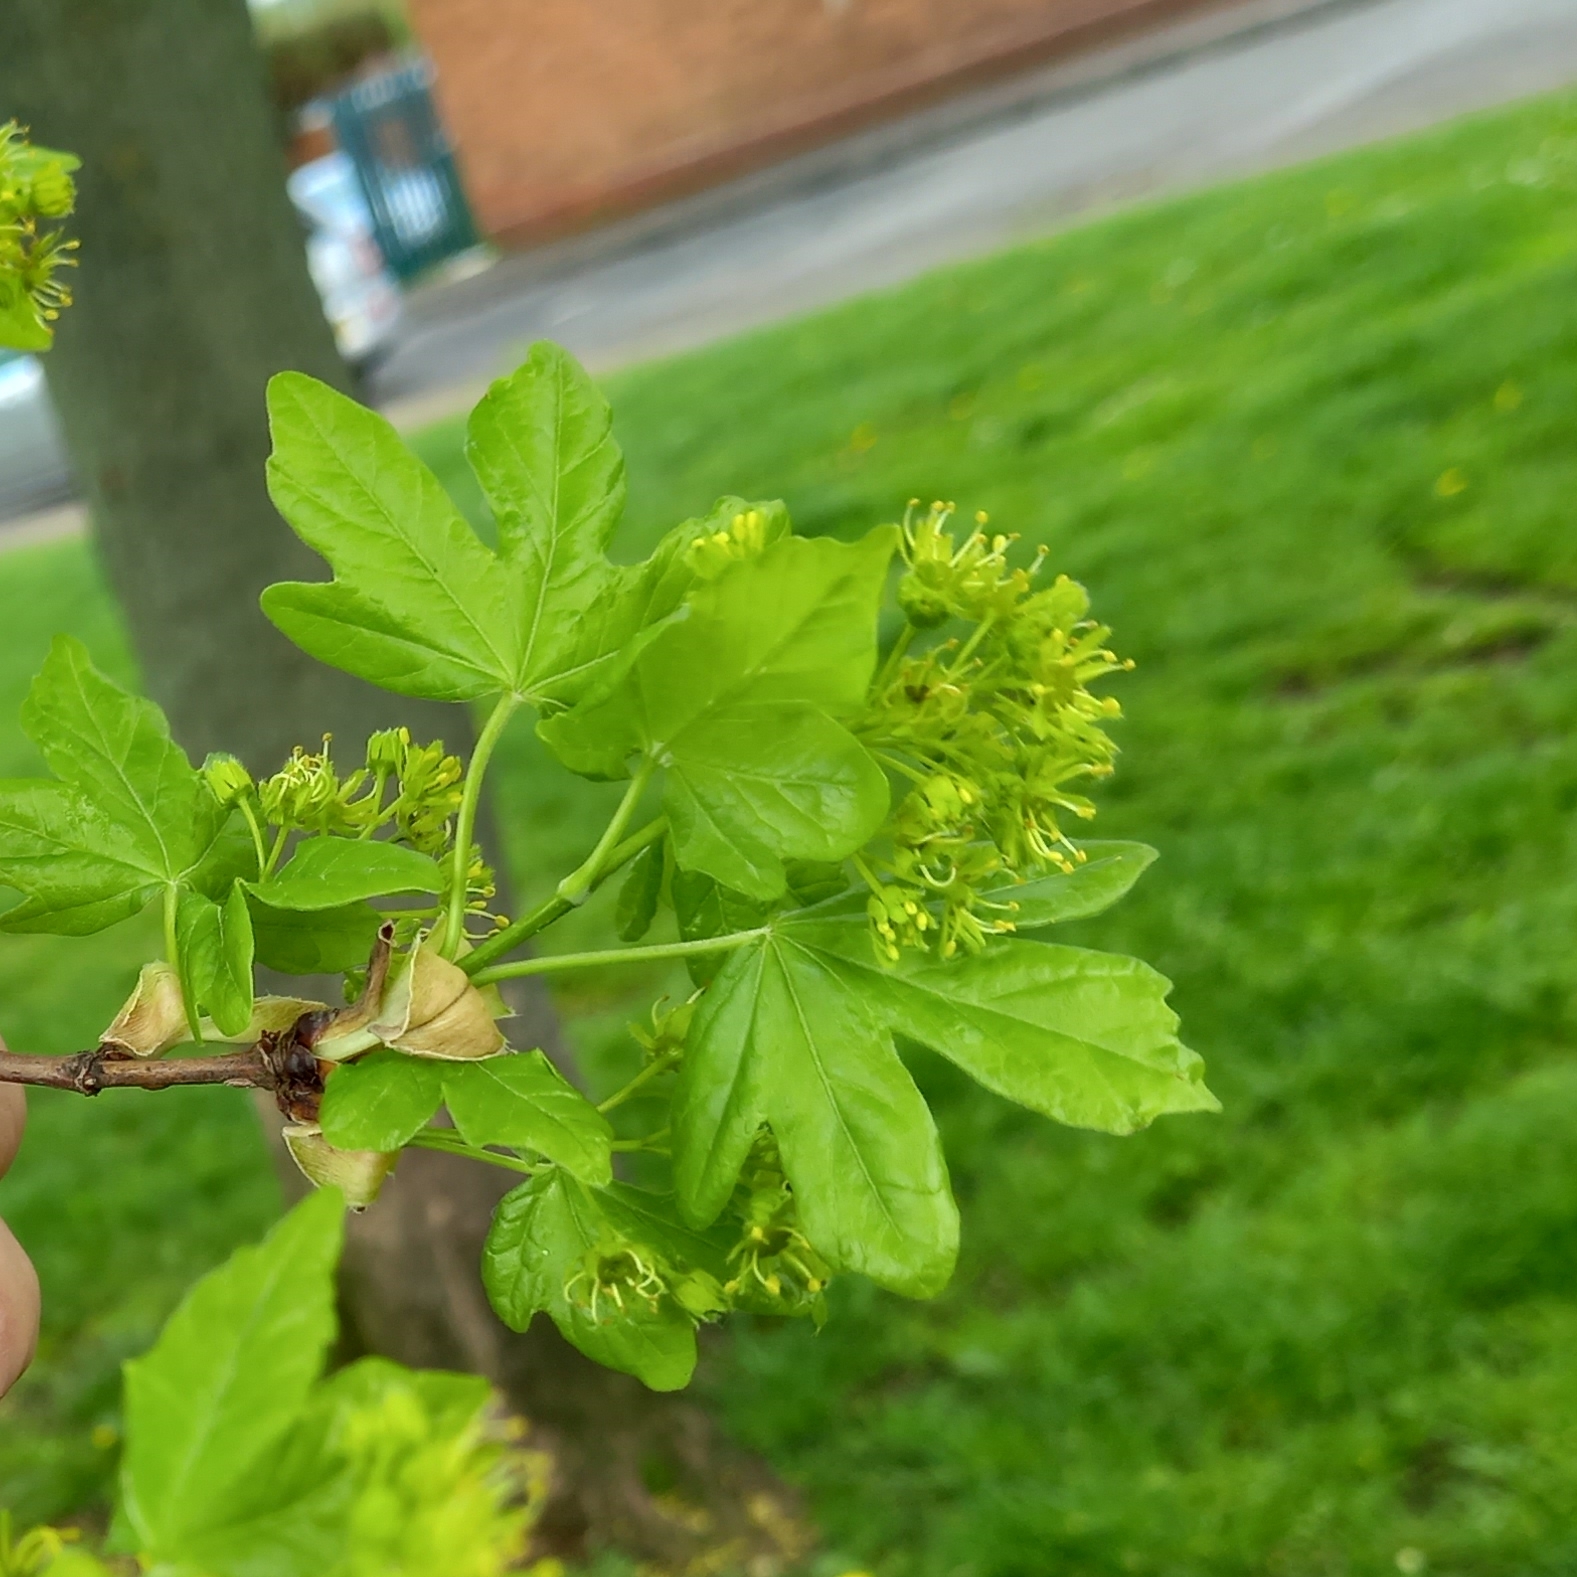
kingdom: Plantae
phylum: Tracheophyta
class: Magnoliopsida
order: Sapindales
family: Sapindaceae
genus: Acer
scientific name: Acer campestre
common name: Field maple
